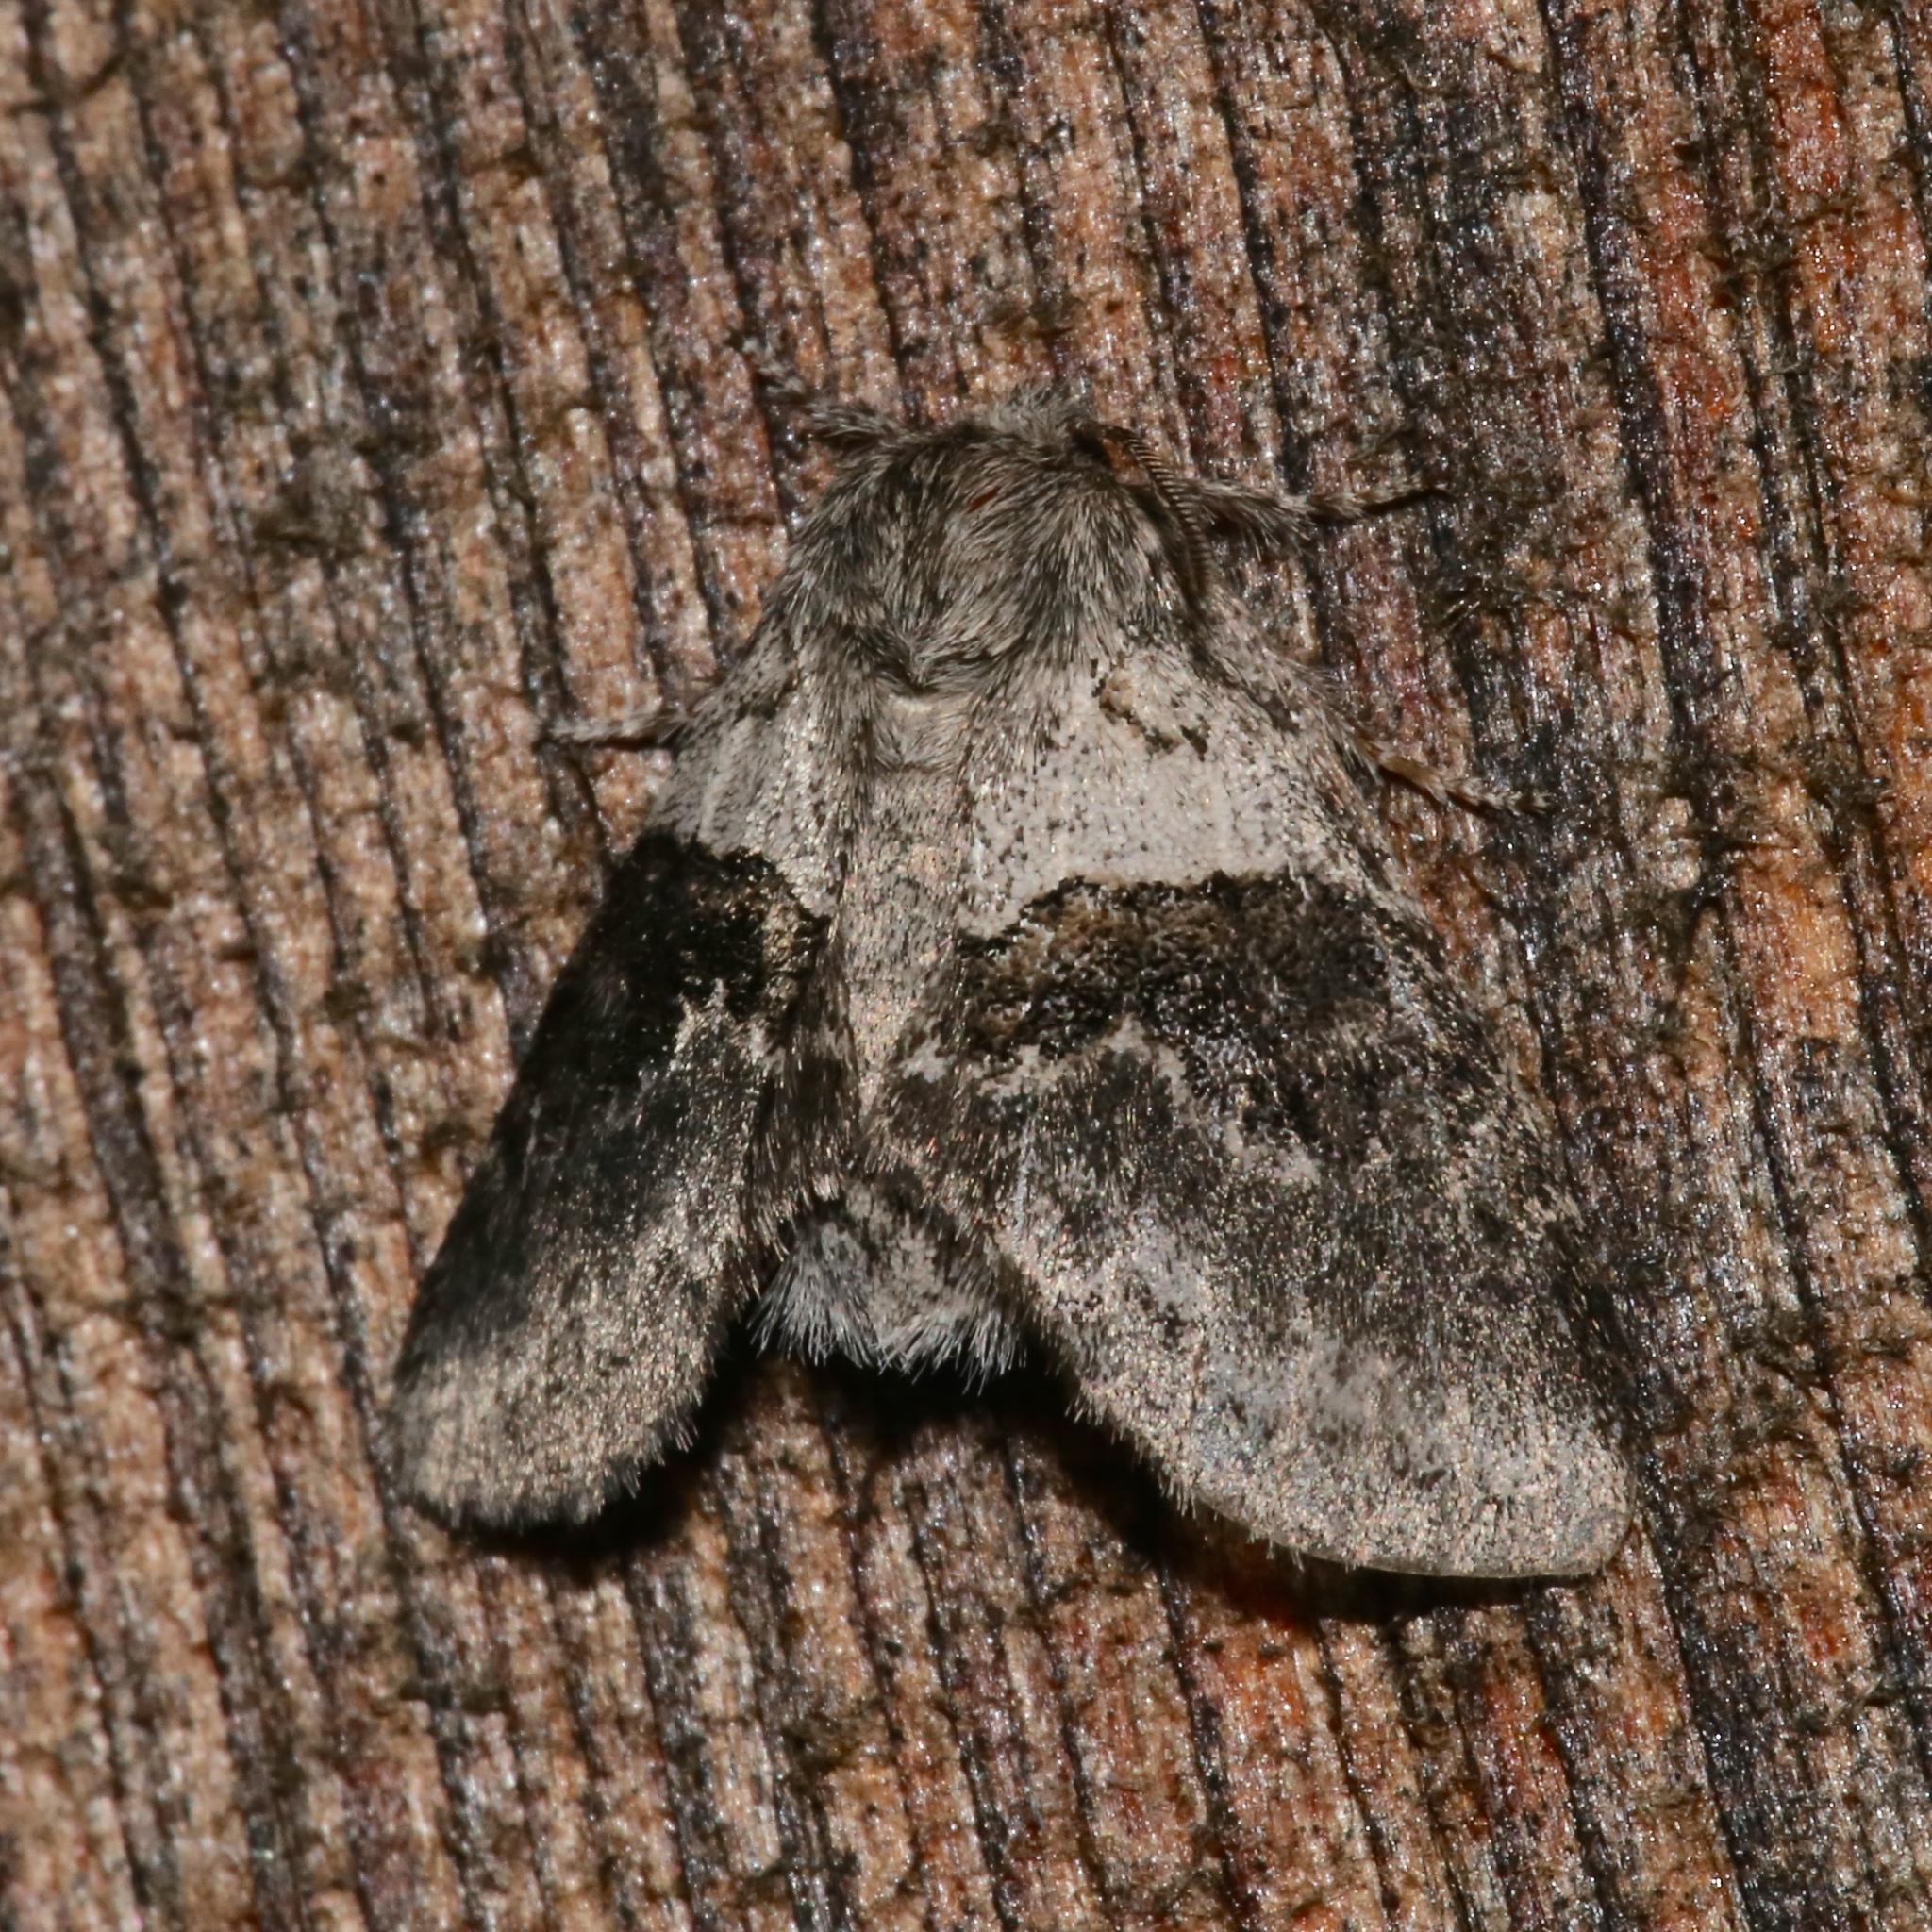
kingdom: Animalia
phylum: Arthropoda
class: Insecta
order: Lepidoptera
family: Notodontidae
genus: Gluphisia
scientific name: Gluphisia septentrionis
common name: Common gluphisia
